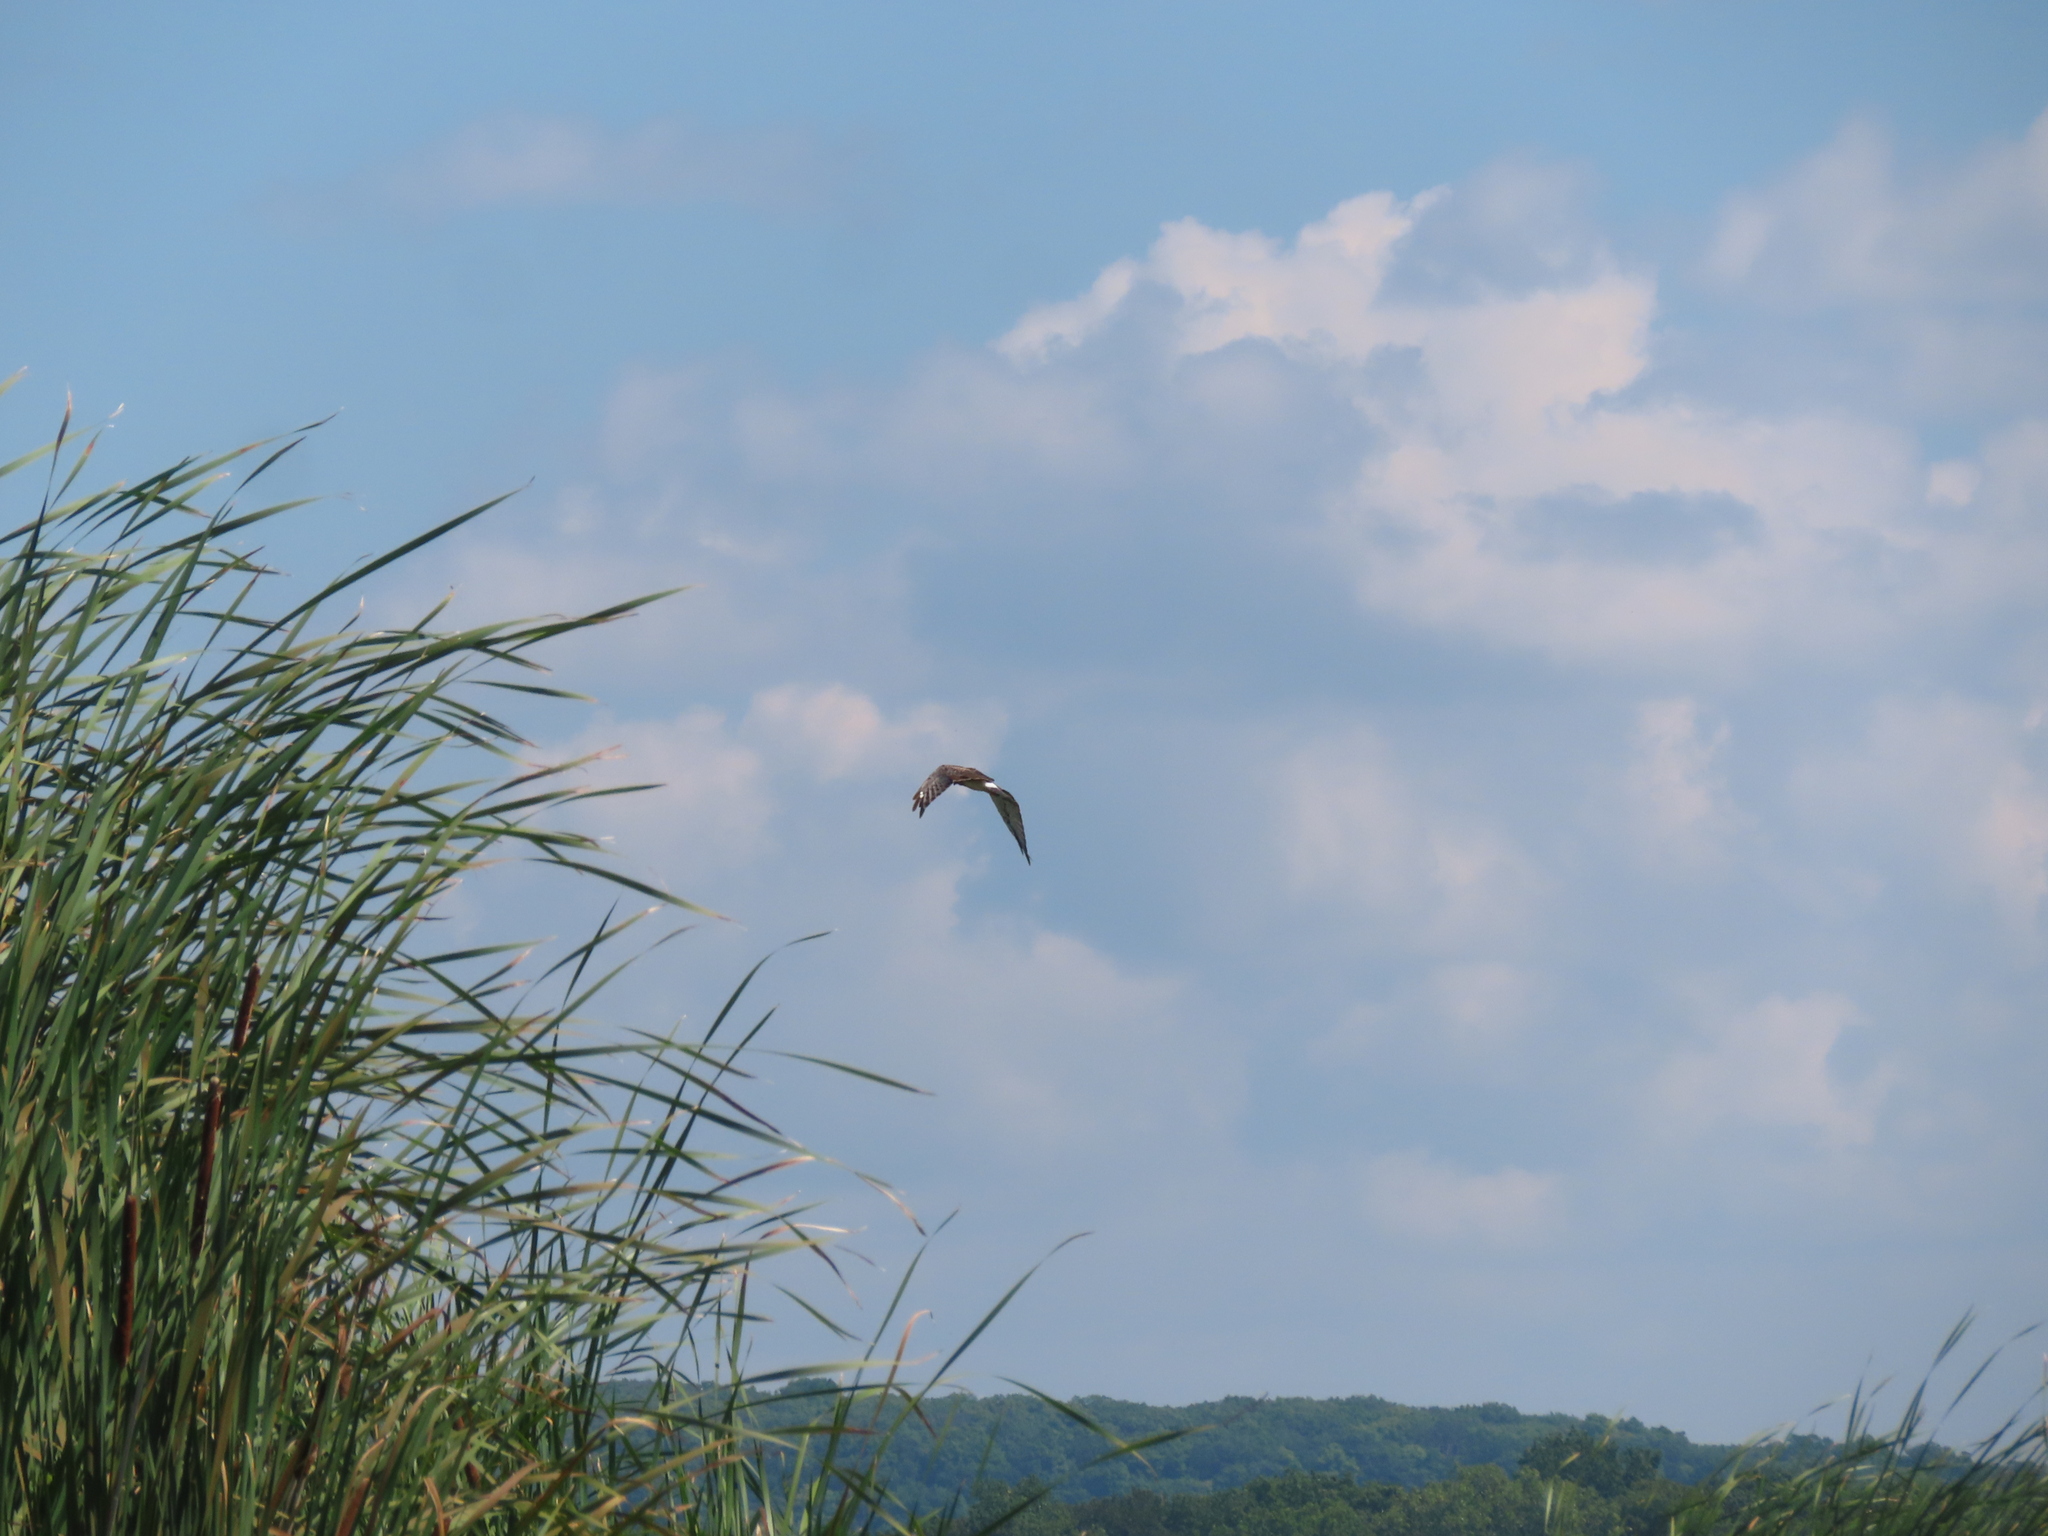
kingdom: Animalia
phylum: Chordata
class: Aves
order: Accipitriformes
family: Accipitridae
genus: Circus
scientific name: Circus cyaneus
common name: Hen harrier
